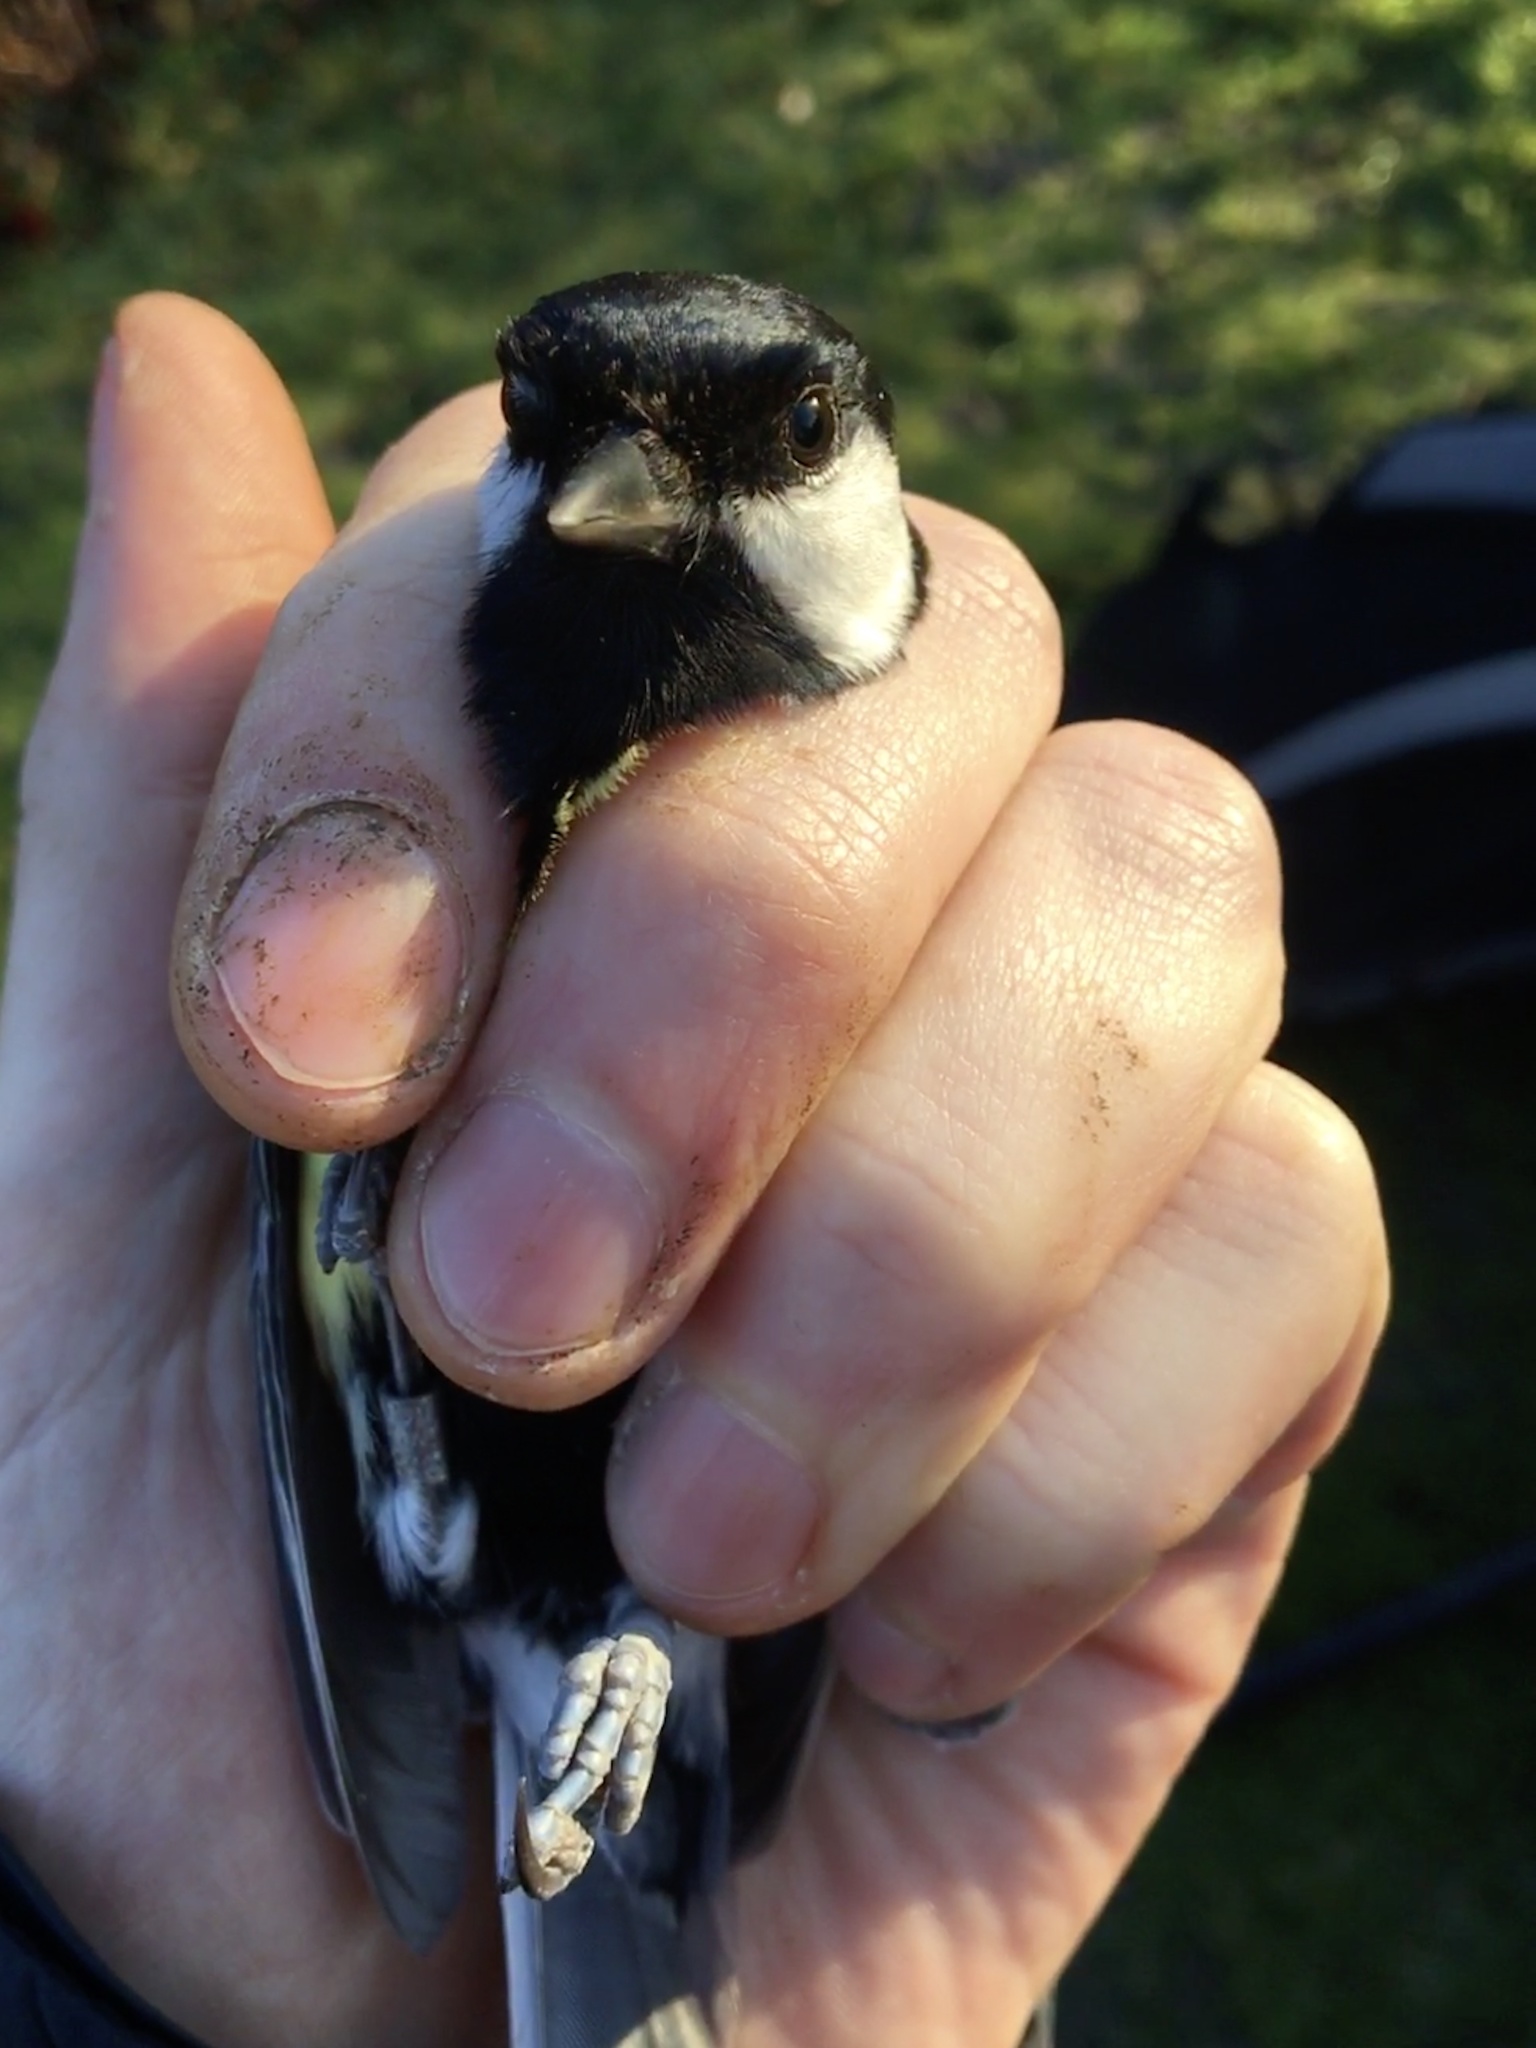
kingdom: Animalia
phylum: Chordata
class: Aves
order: Passeriformes
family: Paridae
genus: Parus
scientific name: Parus major
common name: Great tit
